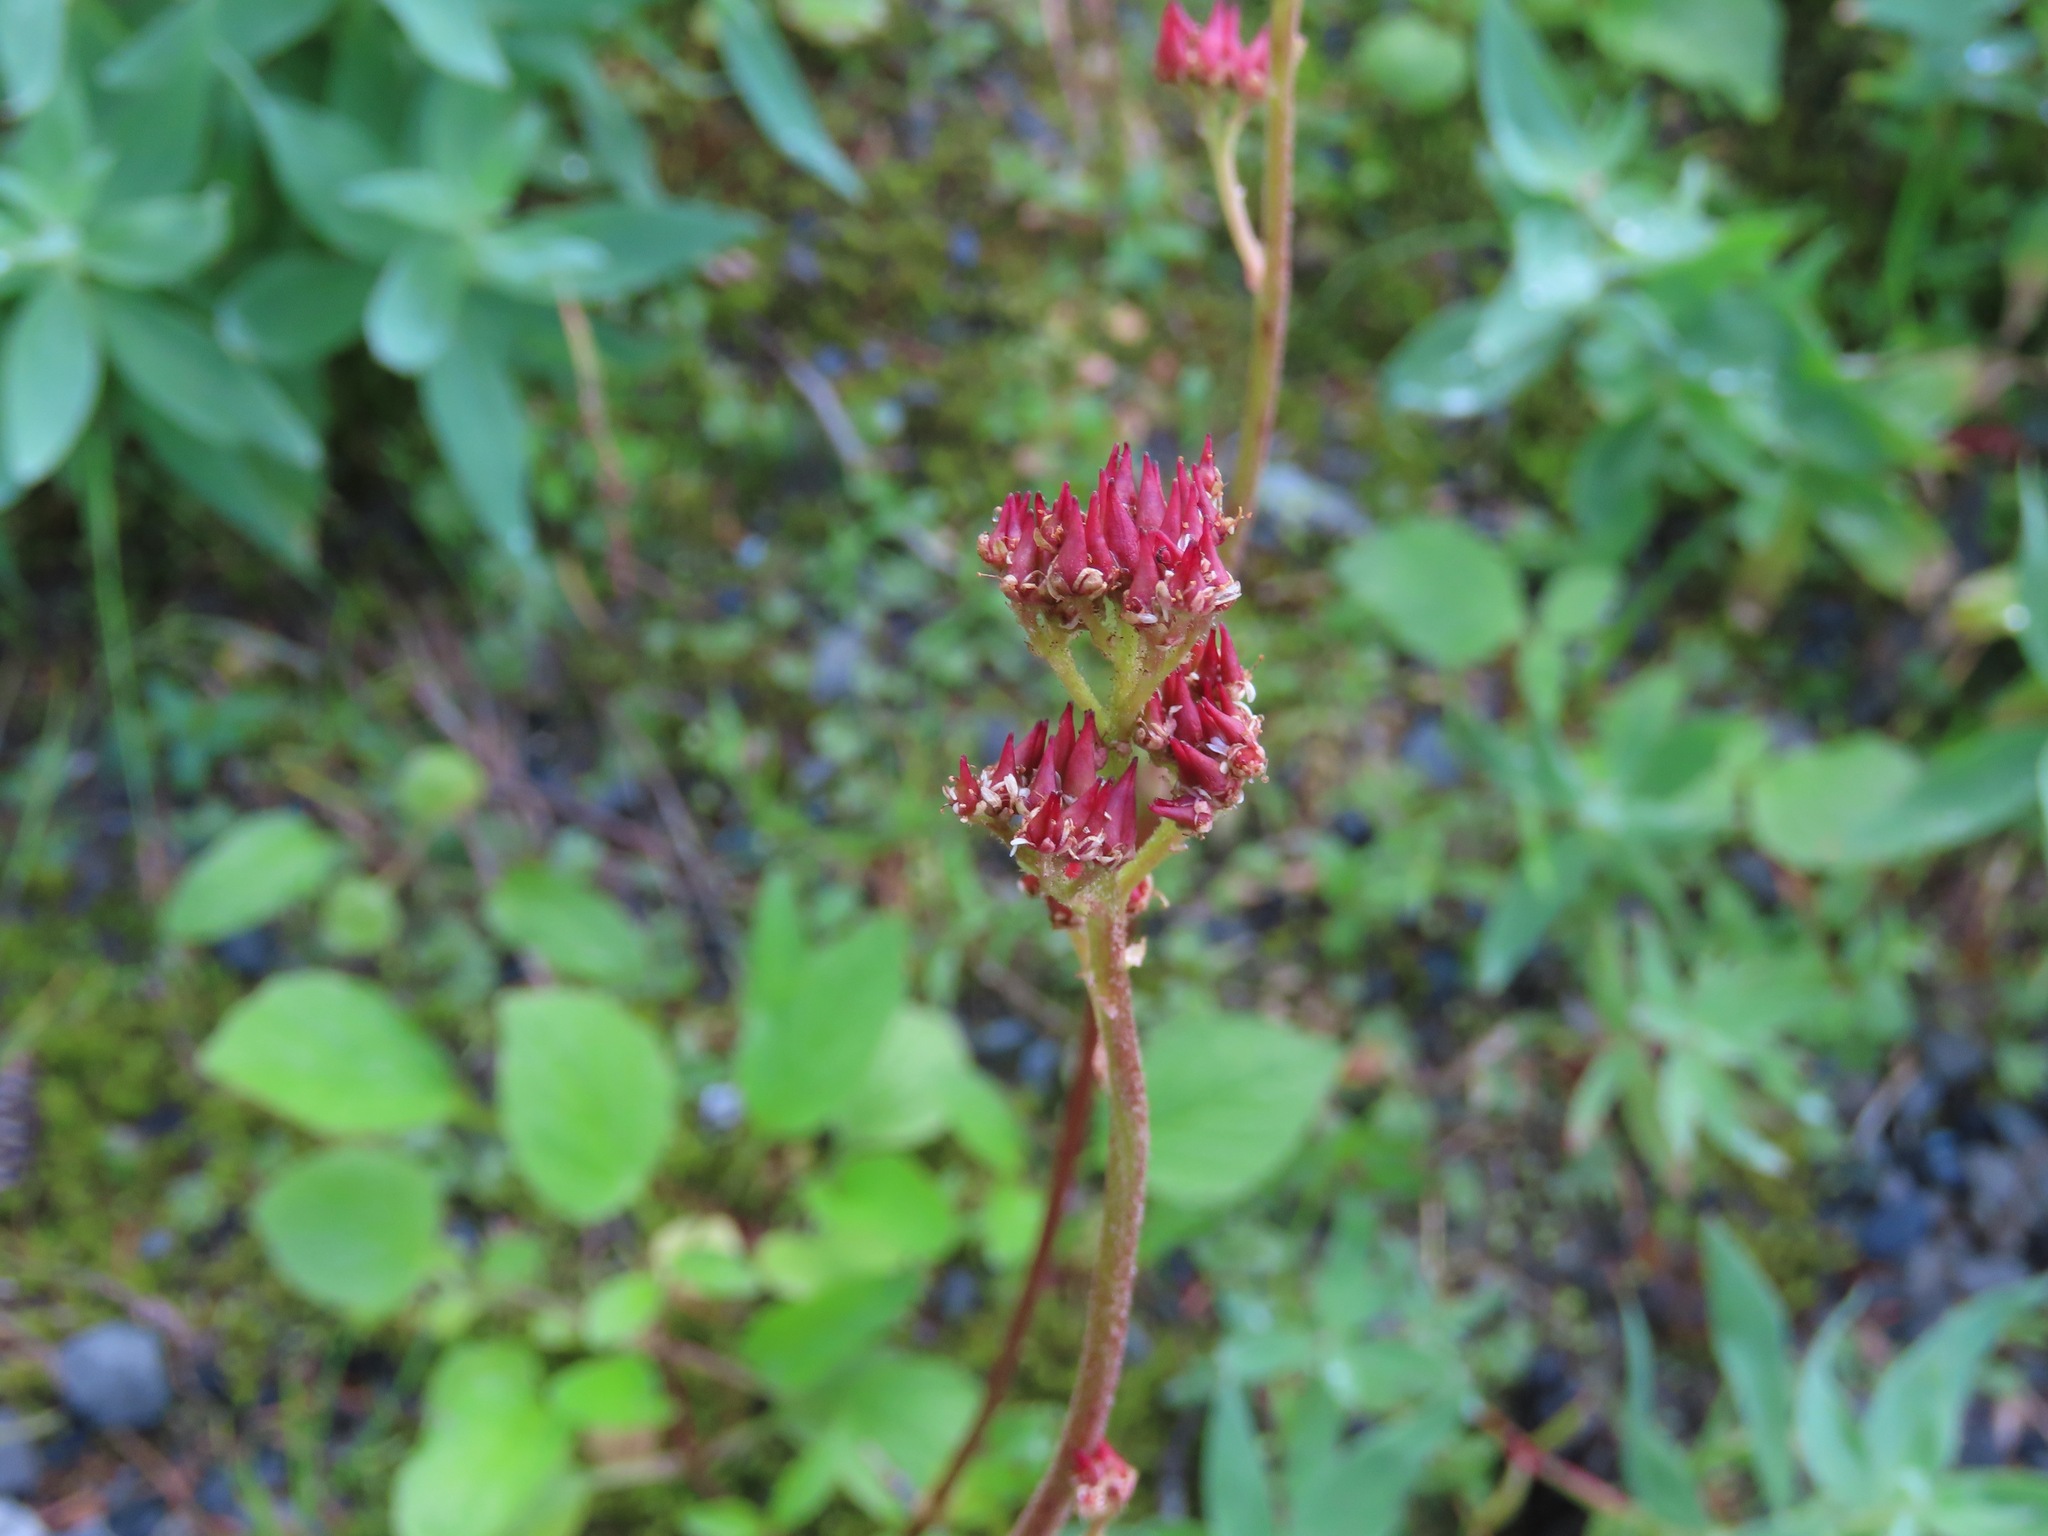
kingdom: Plantae
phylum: Tracheophyta
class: Magnoliopsida
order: Saxifragales
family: Saxifragaceae
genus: Leptarrhena
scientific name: Leptarrhena pyrolifolia
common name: Leatherleaf-saxifrage
